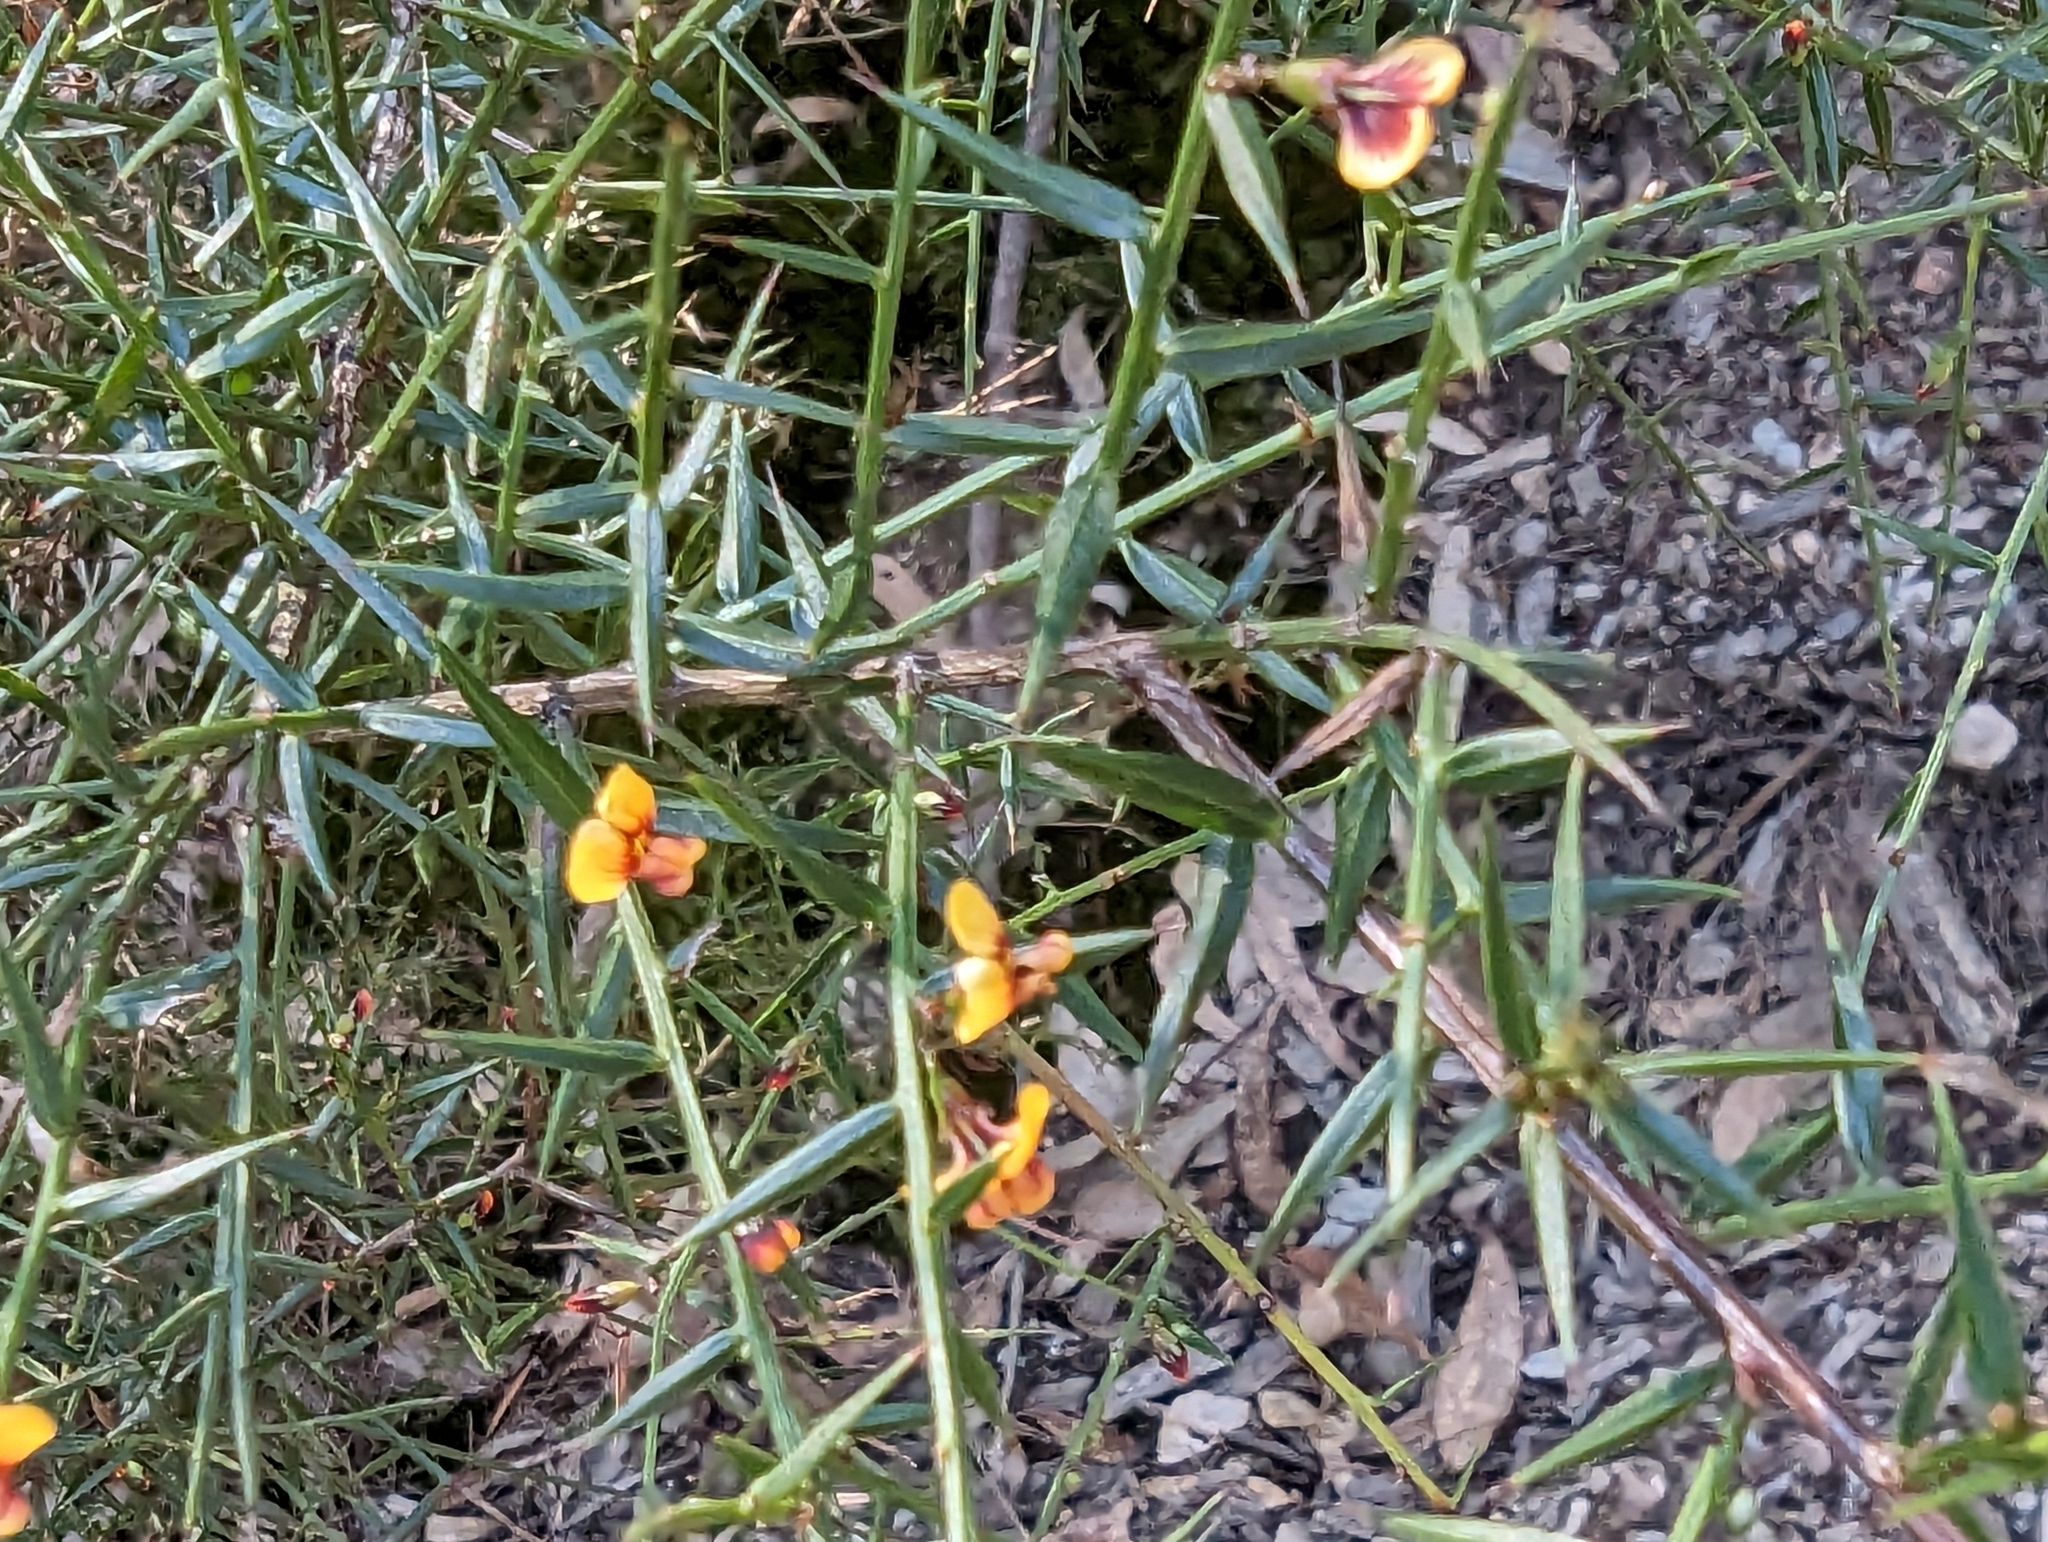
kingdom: Plantae
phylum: Tracheophyta
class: Magnoliopsida
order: Fabales
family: Fabaceae
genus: Daviesia
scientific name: Daviesia ulicifolia
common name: Gorse bitter-pea
